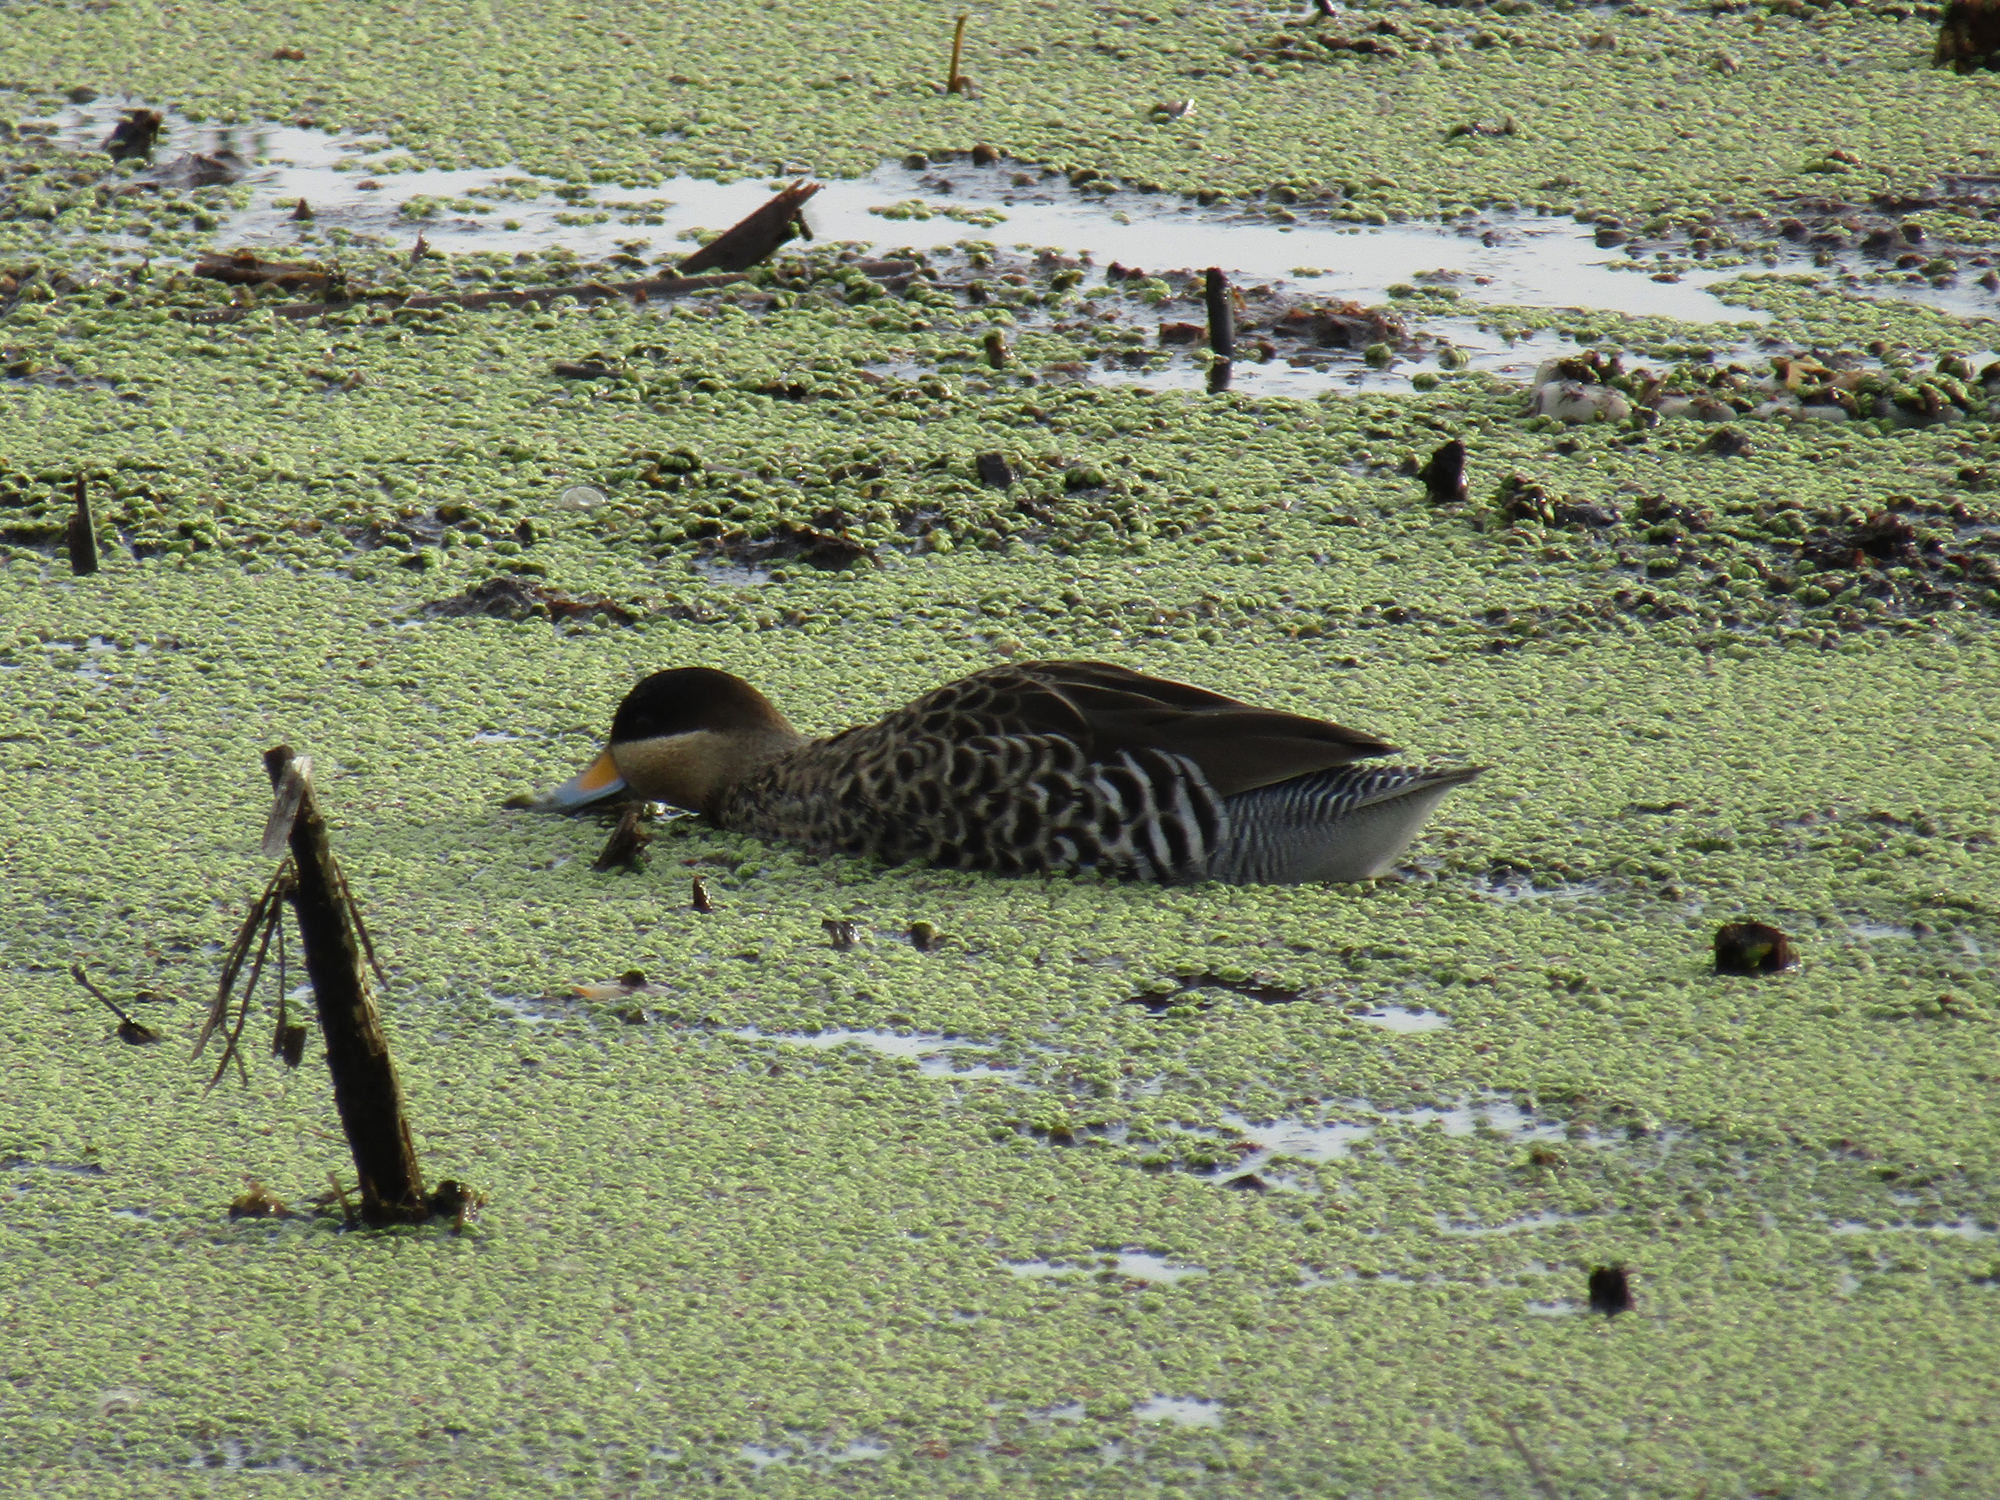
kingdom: Animalia
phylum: Chordata
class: Aves
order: Anseriformes
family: Anatidae
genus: Spatula
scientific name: Spatula versicolor
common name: Silver teal
